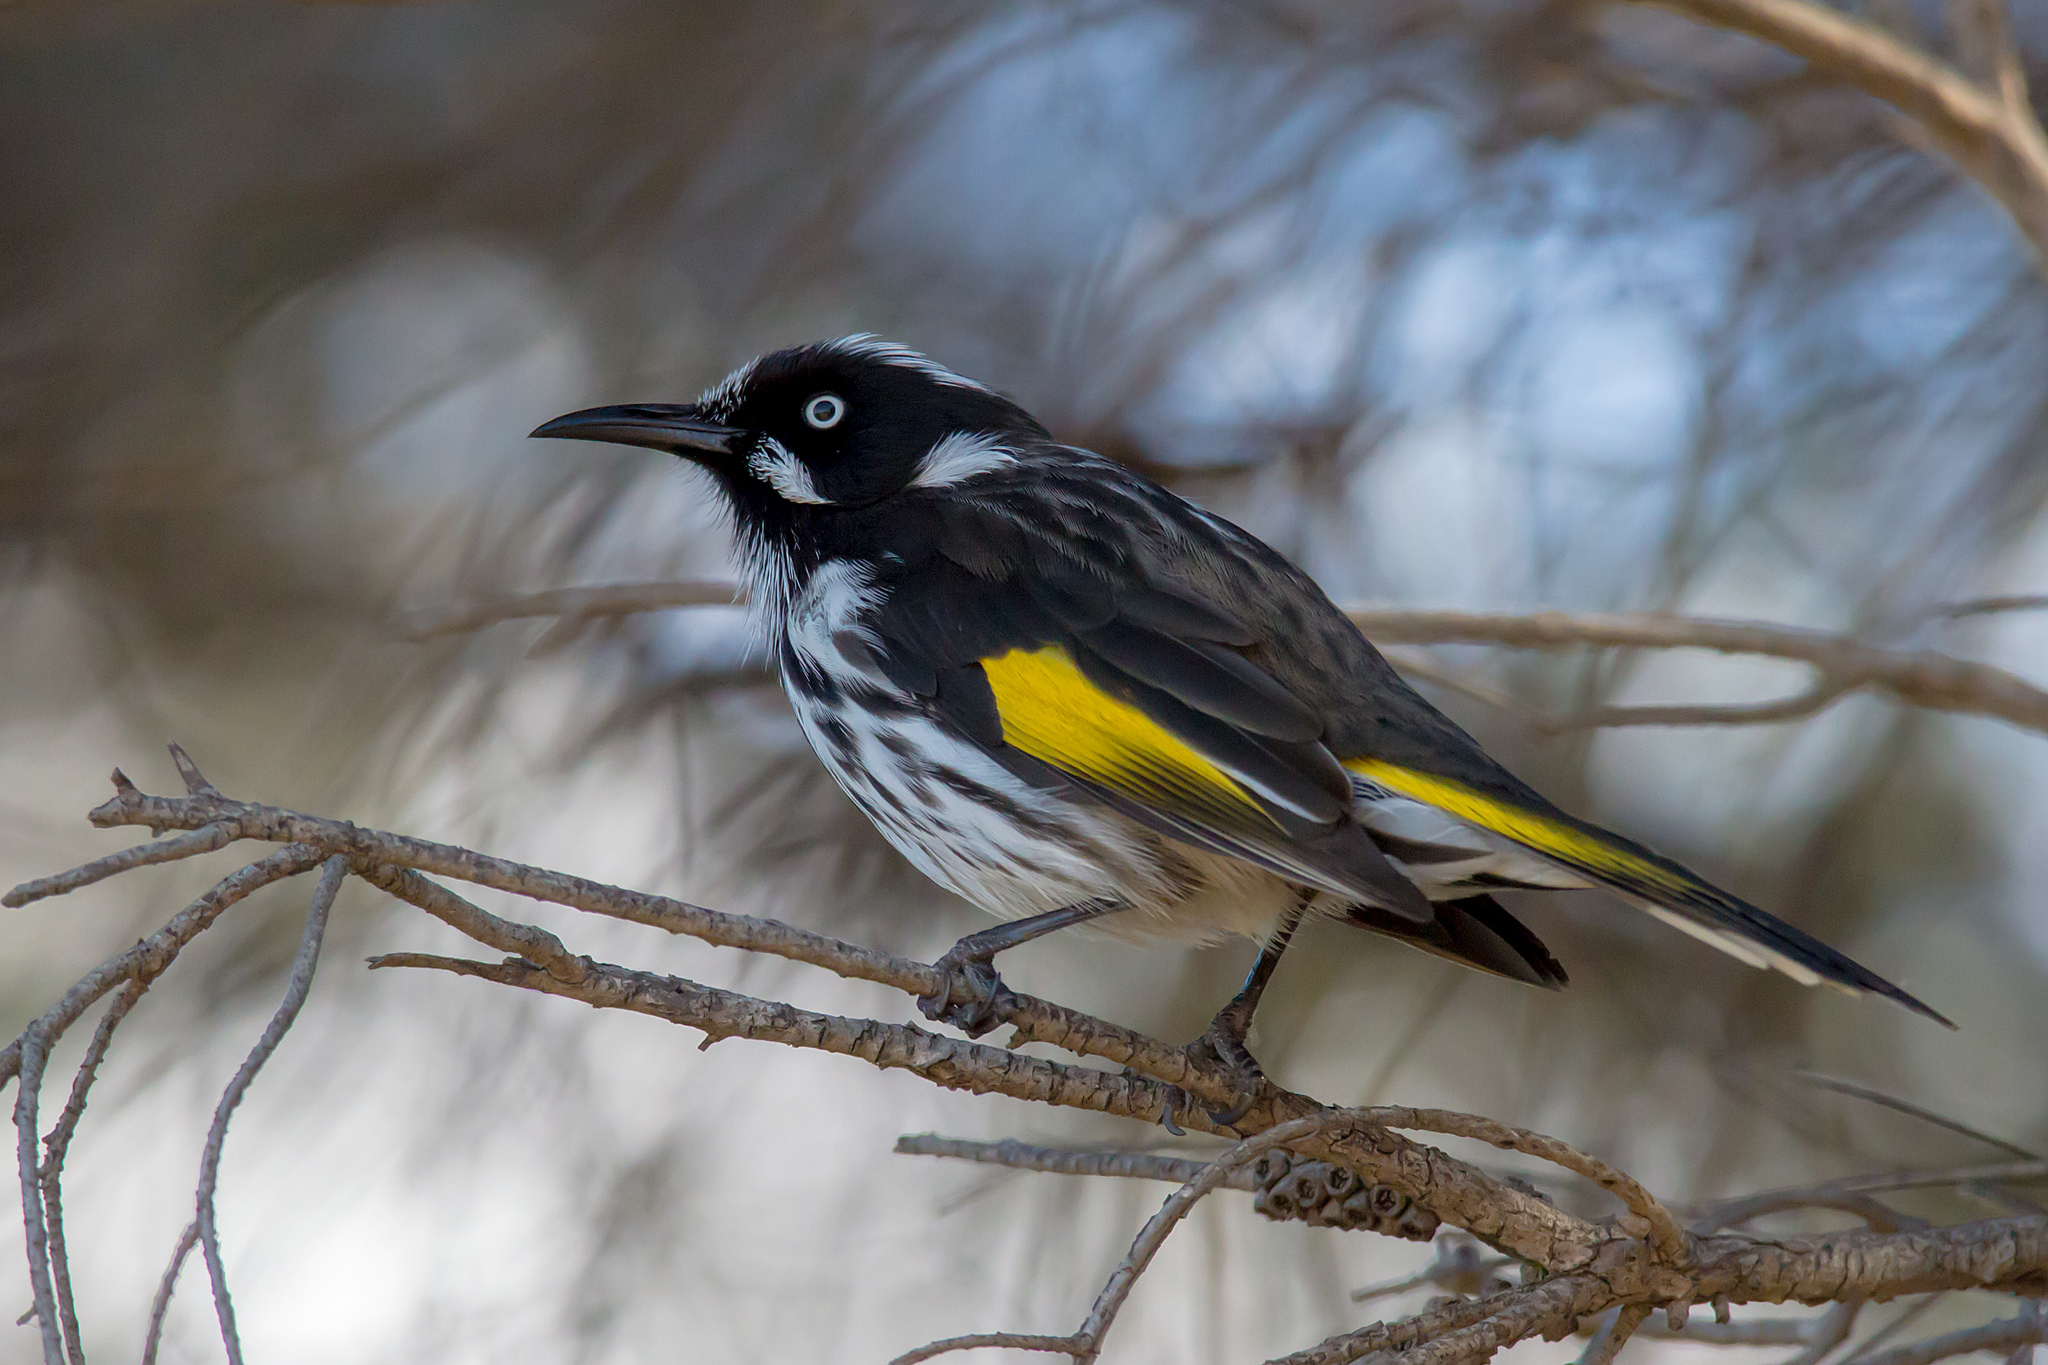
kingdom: Animalia
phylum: Chordata
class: Aves
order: Passeriformes
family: Meliphagidae
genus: Phylidonyris
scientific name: Phylidonyris novaehollandiae
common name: New holland honeyeater
